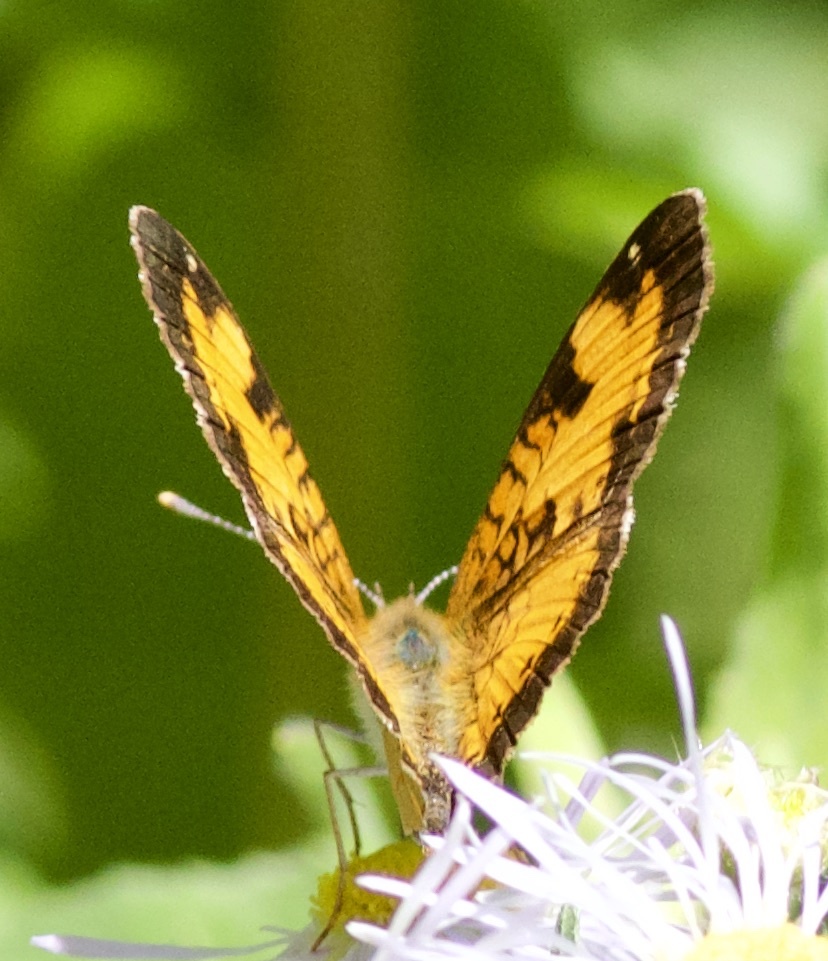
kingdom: Animalia
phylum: Arthropoda
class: Insecta
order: Lepidoptera
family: Nymphalidae
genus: Phyciodes
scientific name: Phyciodes tharos
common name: Pearl crescent
